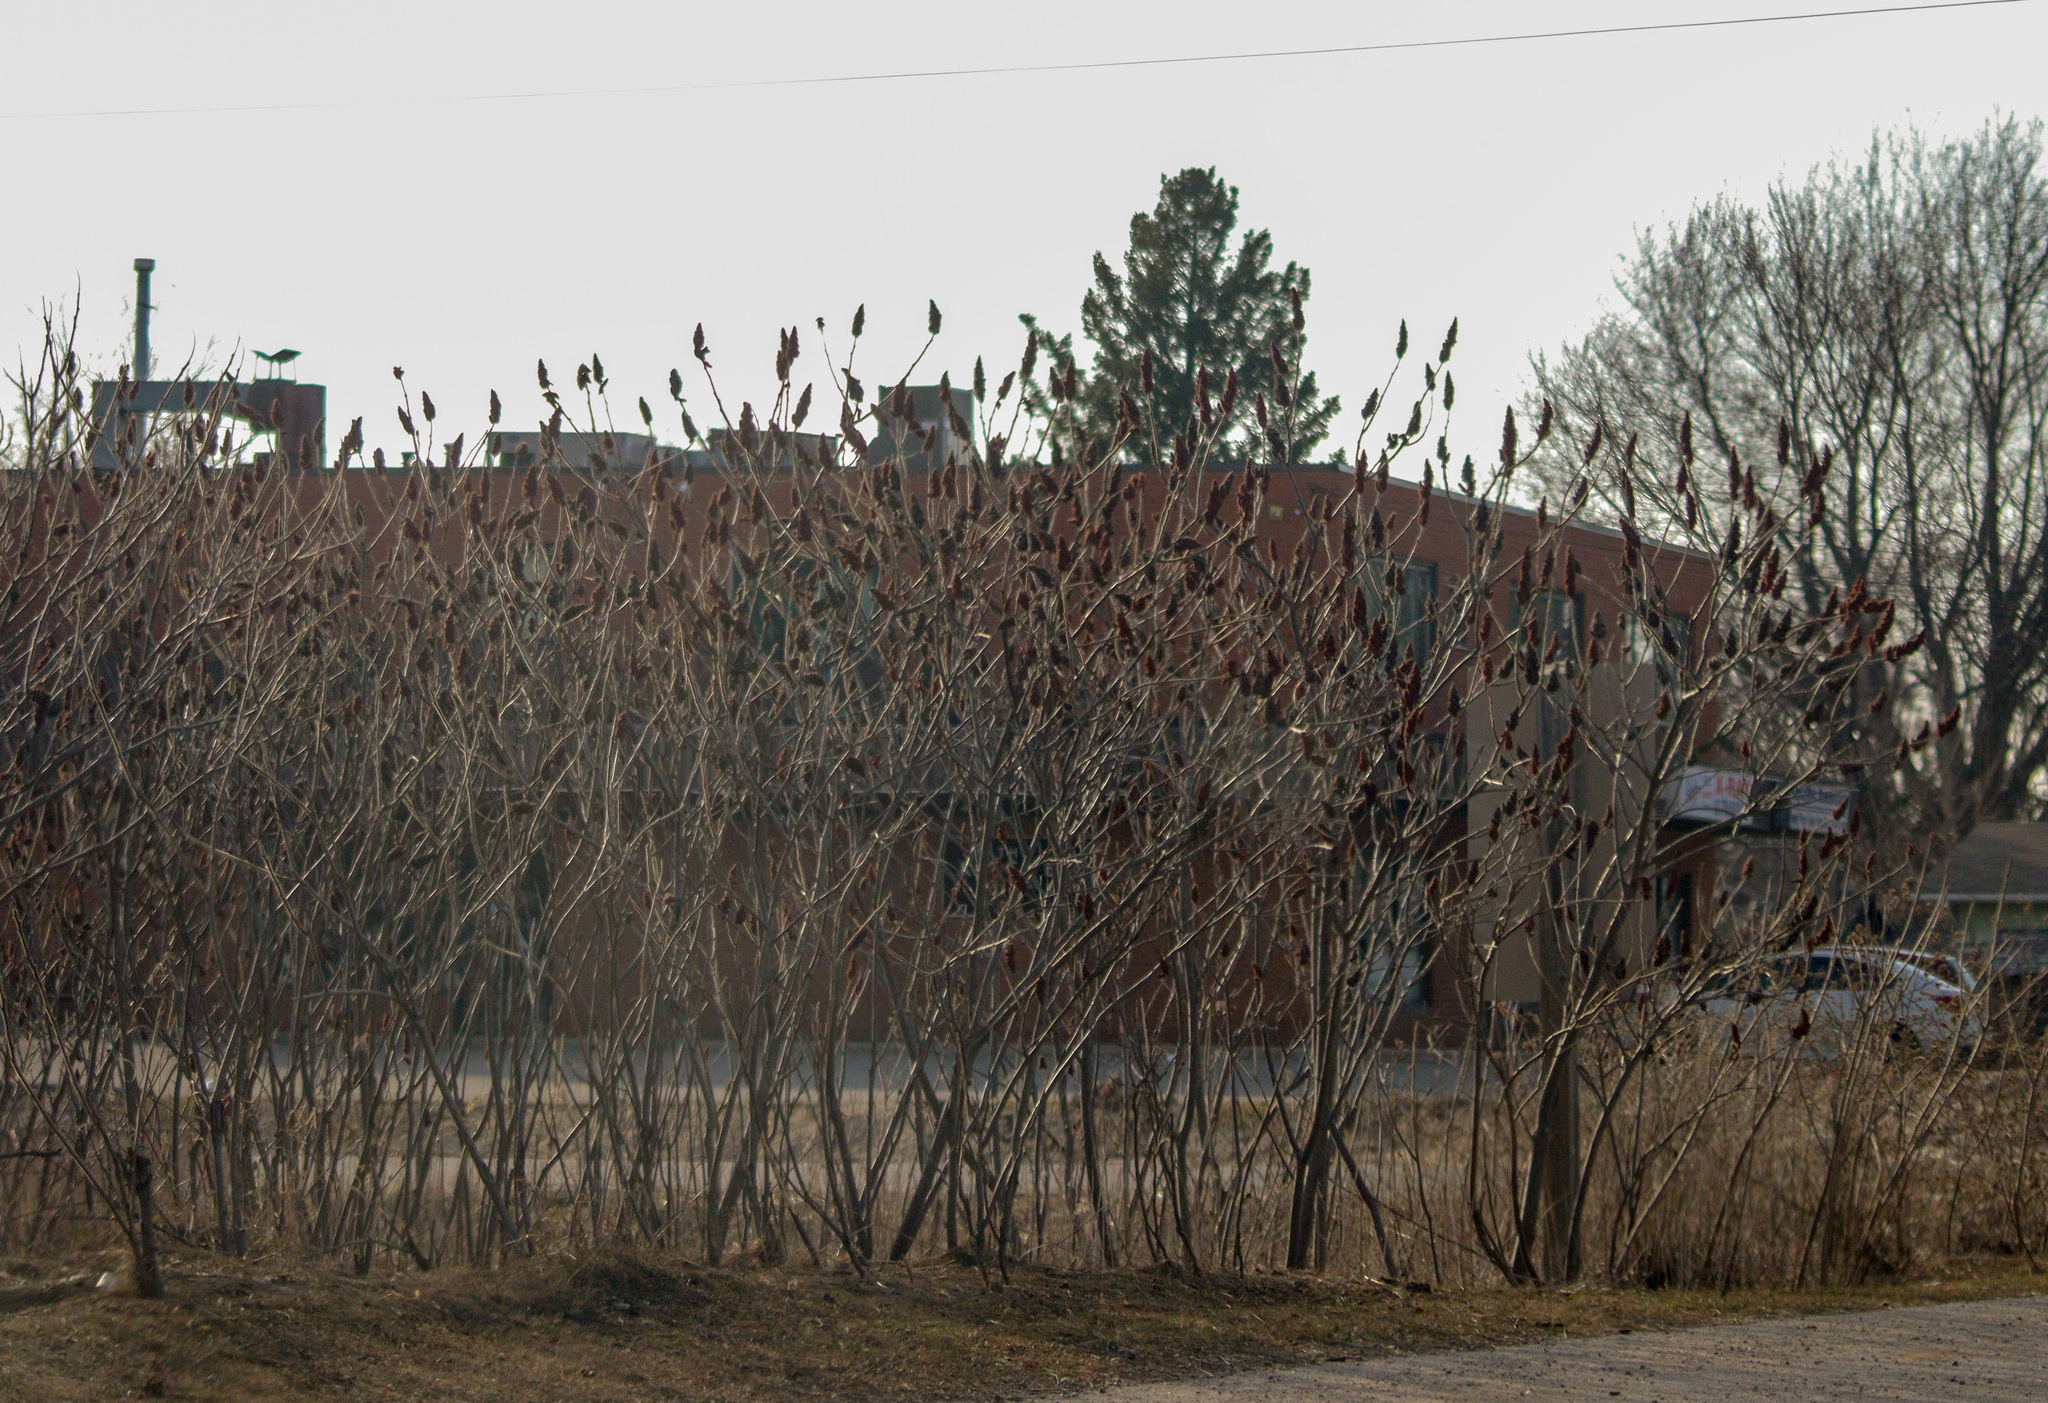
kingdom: Plantae
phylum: Tracheophyta
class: Magnoliopsida
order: Sapindales
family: Anacardiaceae
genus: Rhus
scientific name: Rhus typhina
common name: Staghorn sumac
